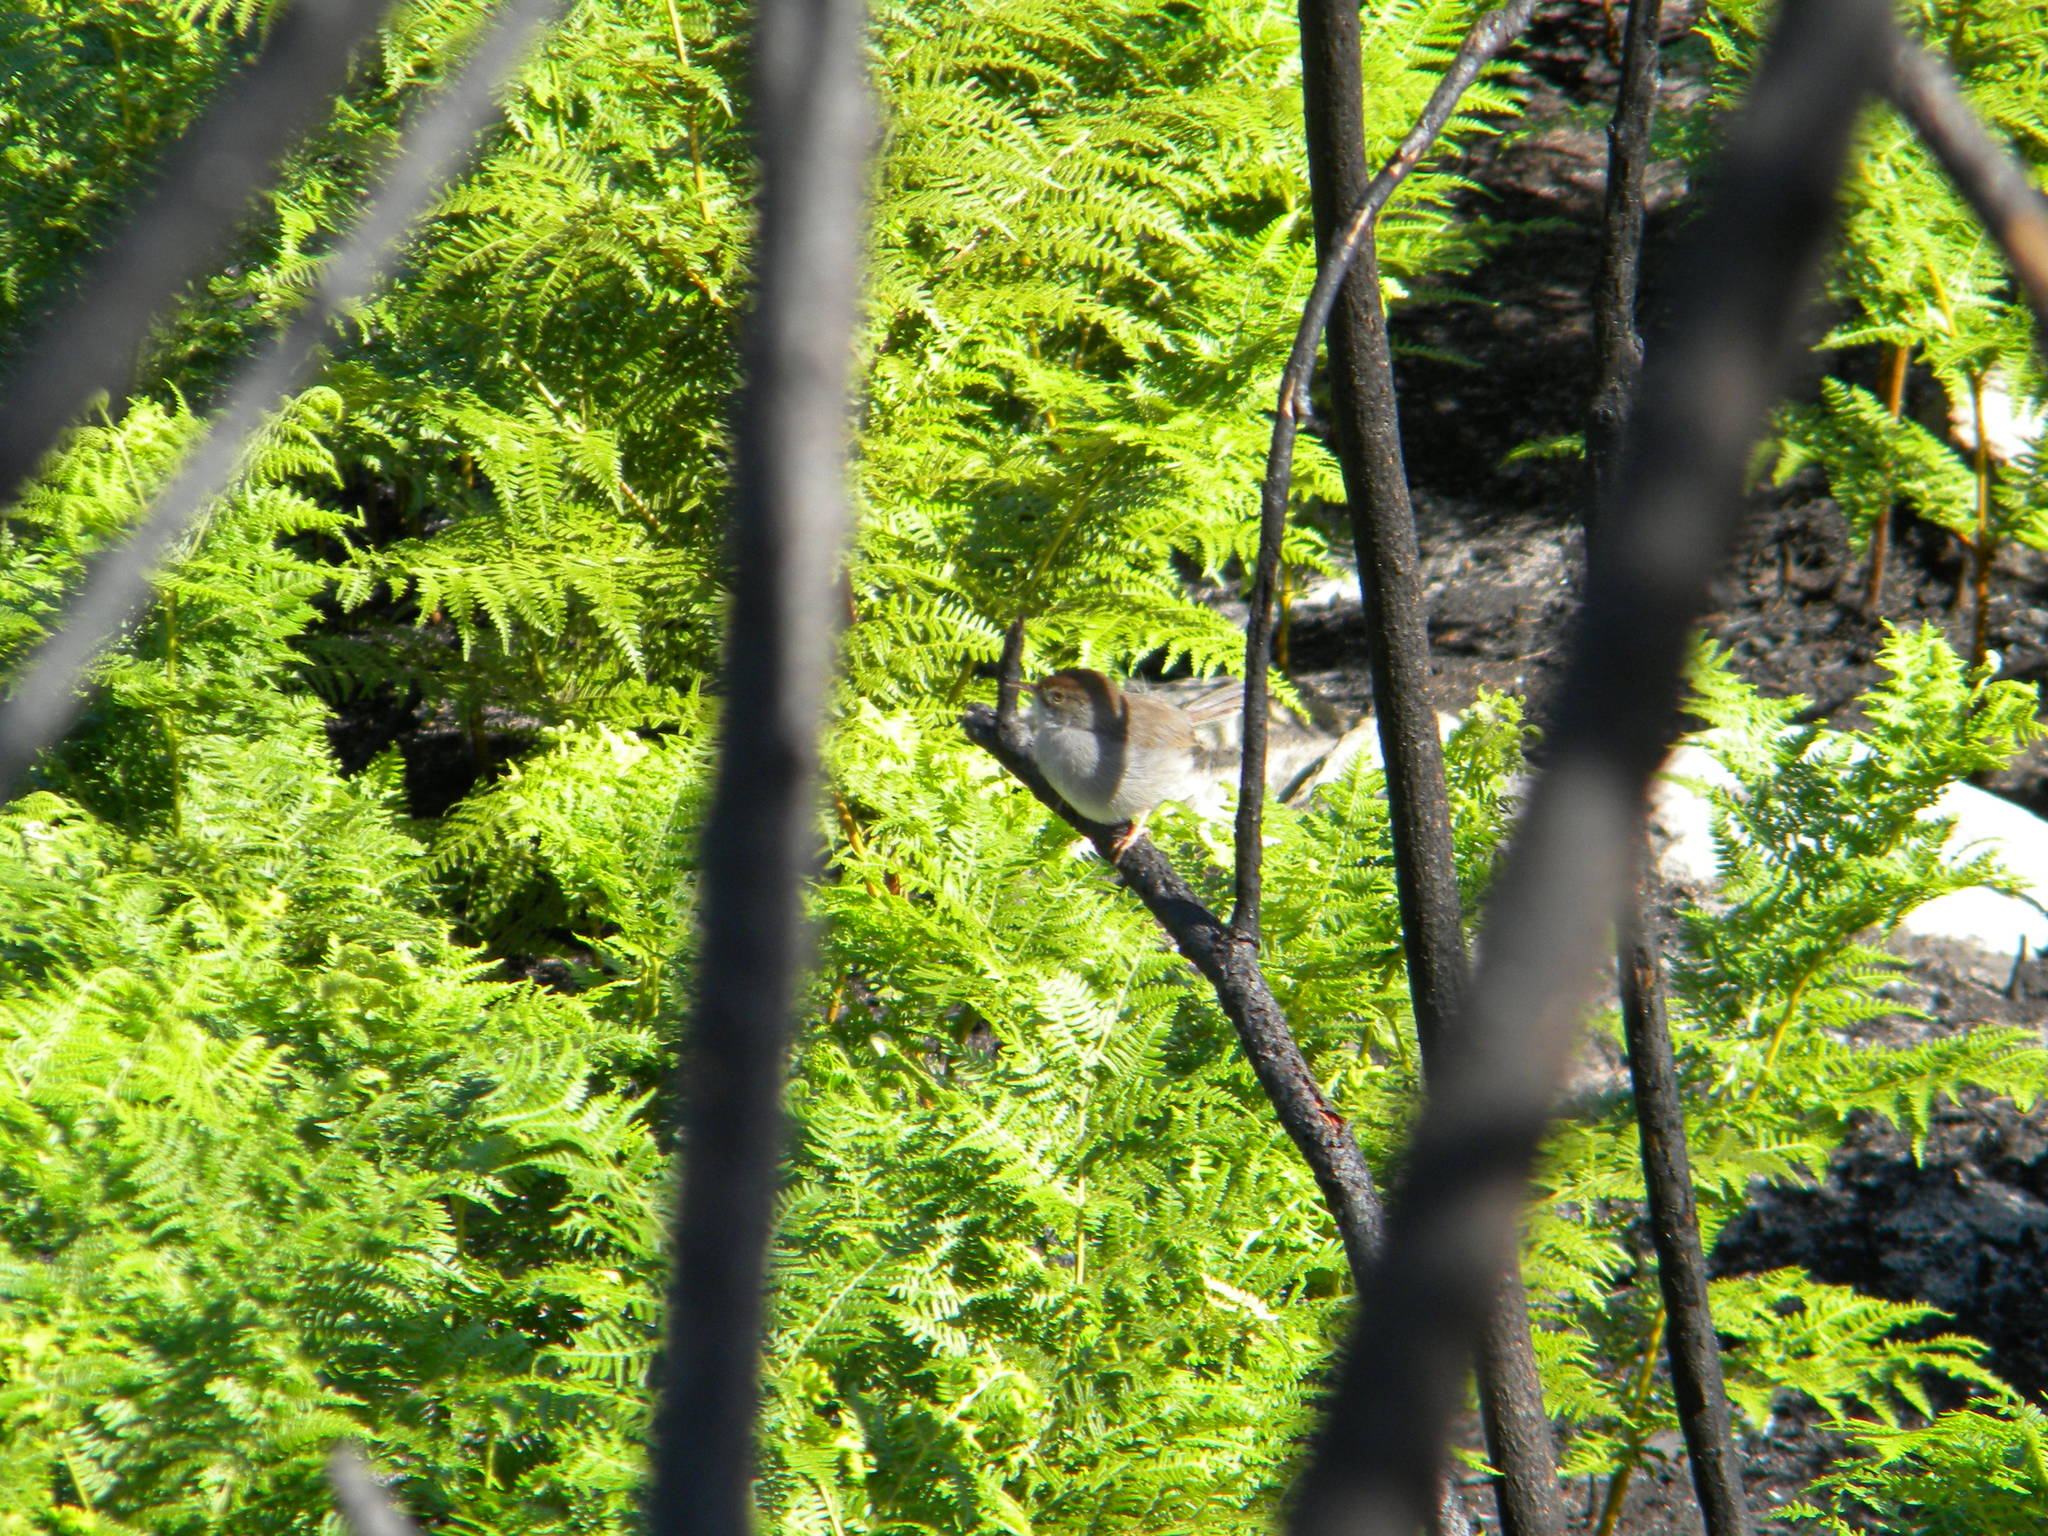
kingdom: Animalia
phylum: Chordata
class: Aves
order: Passeriformes
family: Cisticolidae
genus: Cisticola
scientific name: Cisticola fulvicapilla
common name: Neddicky
